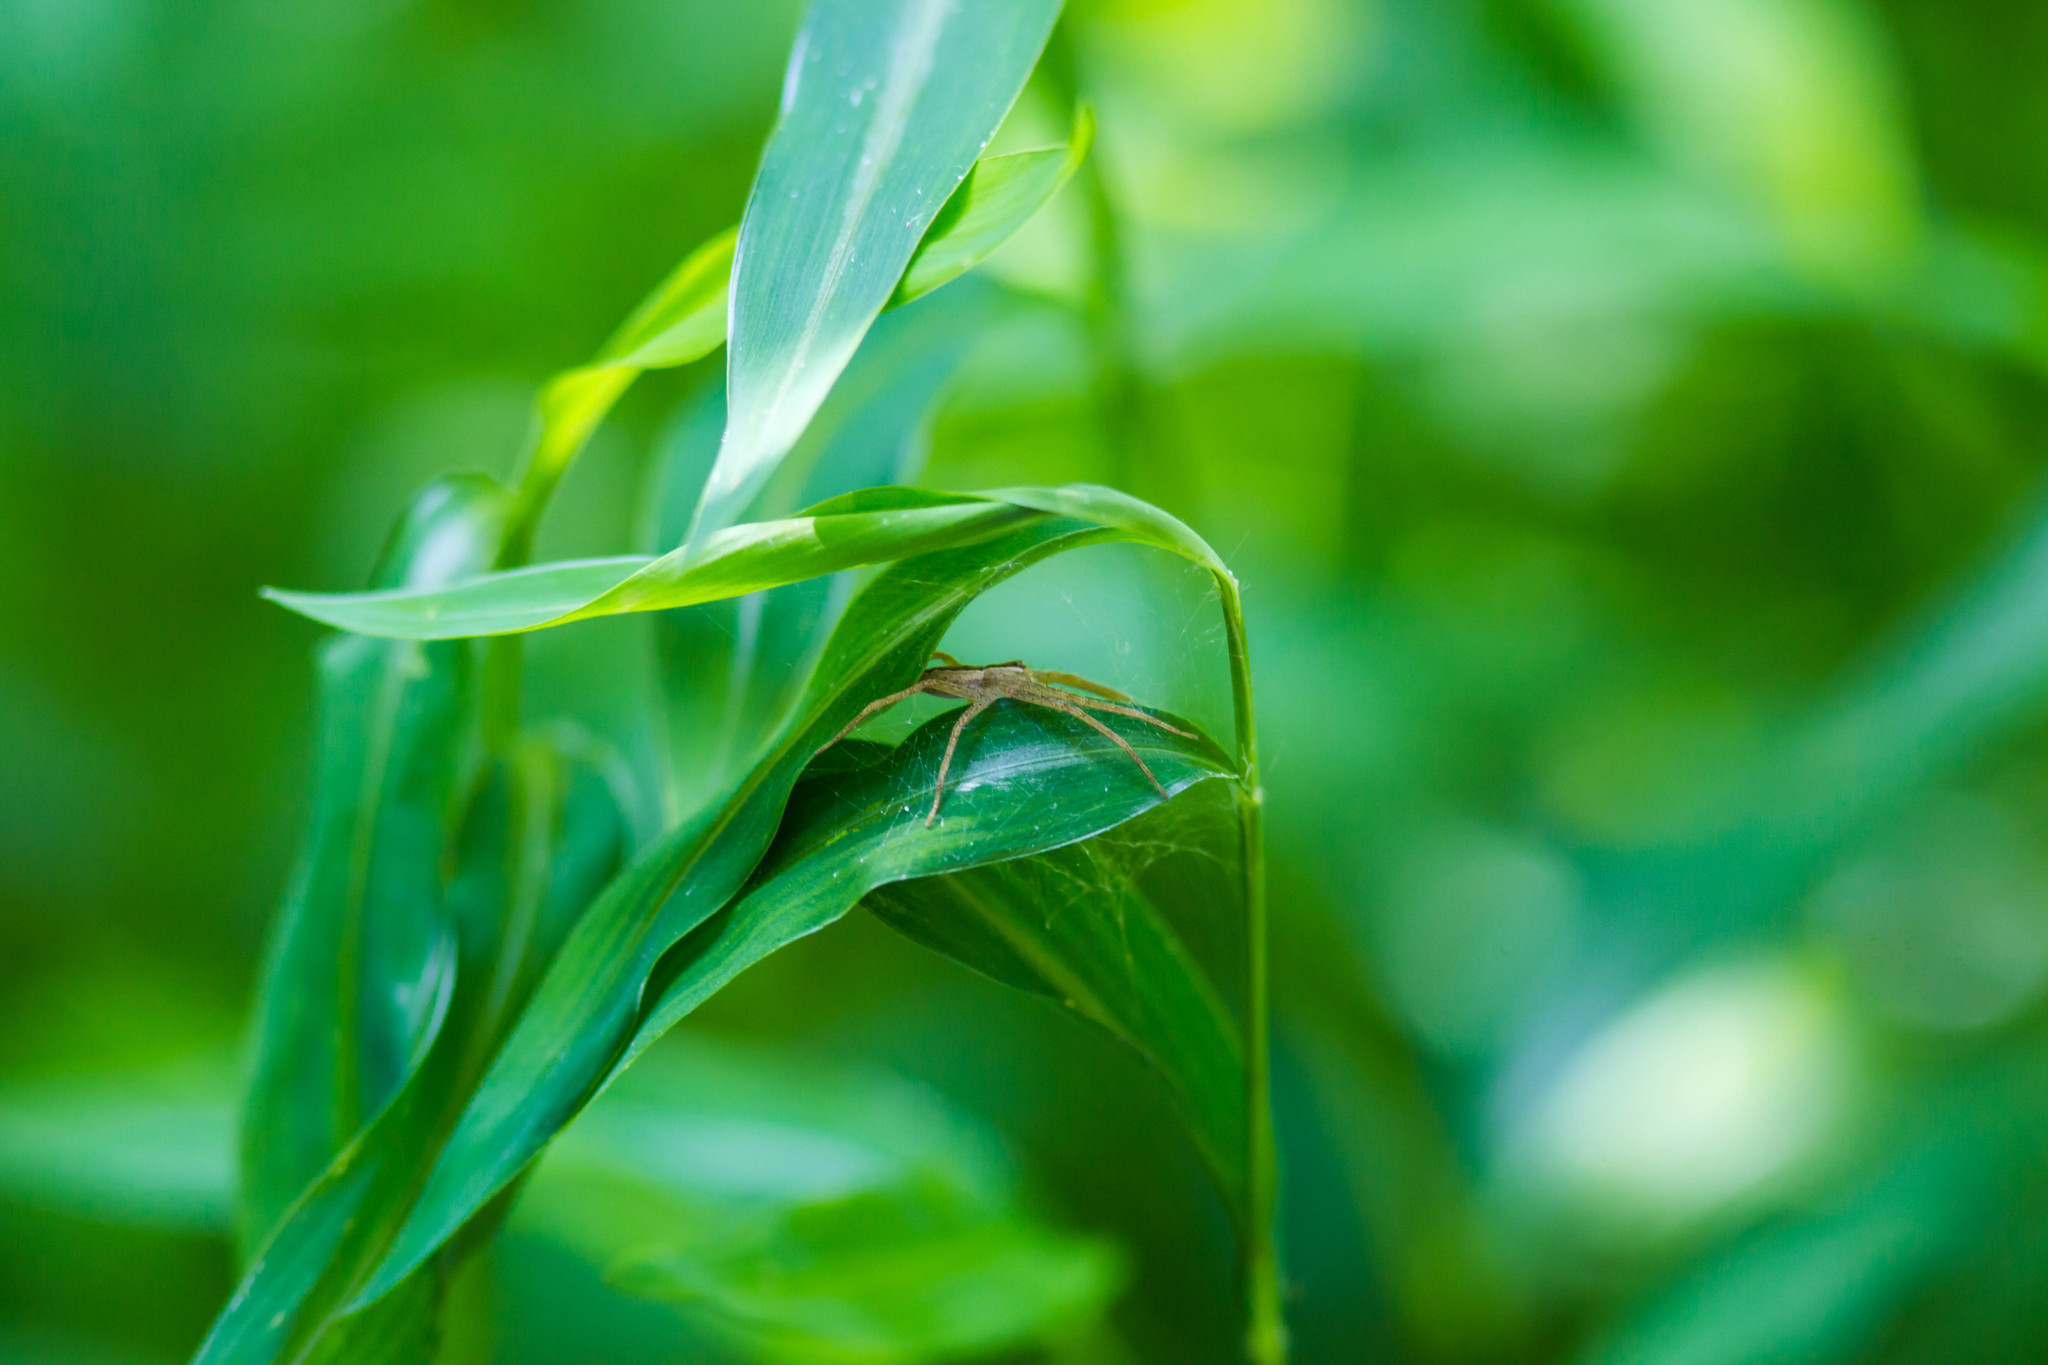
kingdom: Animalia
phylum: Arthropoda
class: Arachnida
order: Araneae
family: Pisauridae
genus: Pisaurina
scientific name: Pisaurina mira
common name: American nursery web spider
